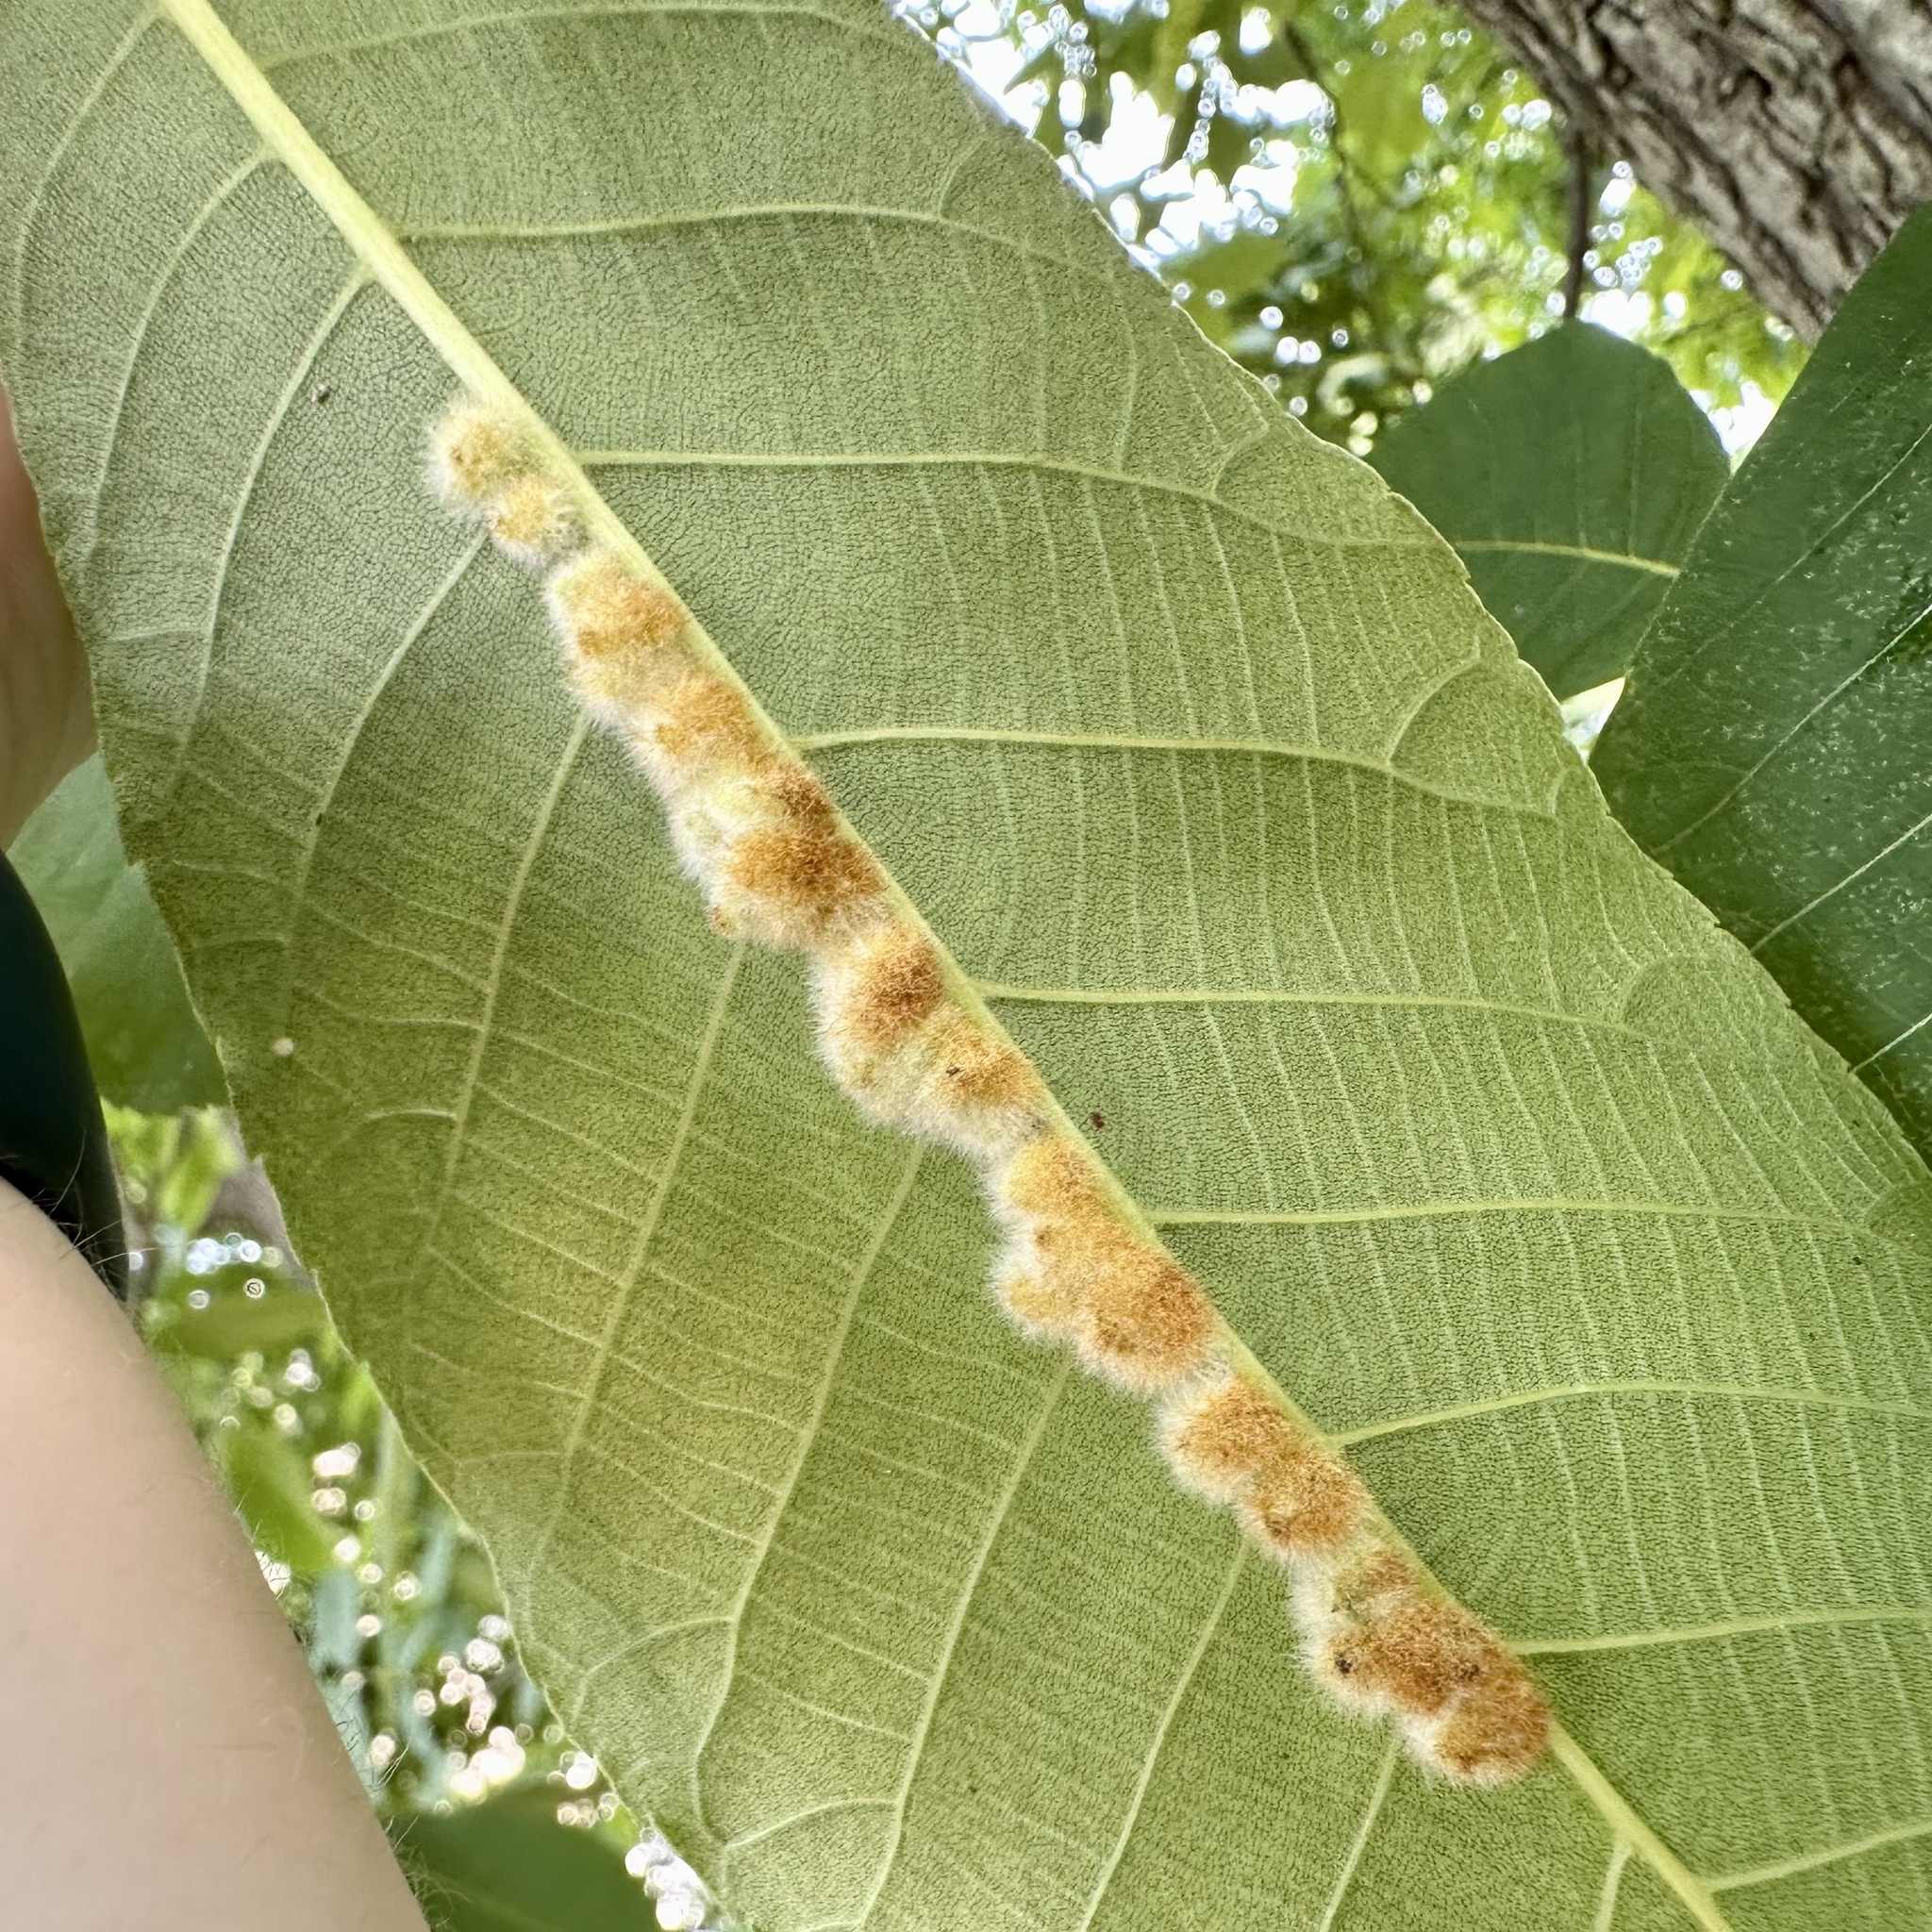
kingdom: Animalia
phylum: Arthropoda
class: Insecta
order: Diptera
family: Cecidomyiidae
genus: Caryomyia
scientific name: Caryomyia aggregata
